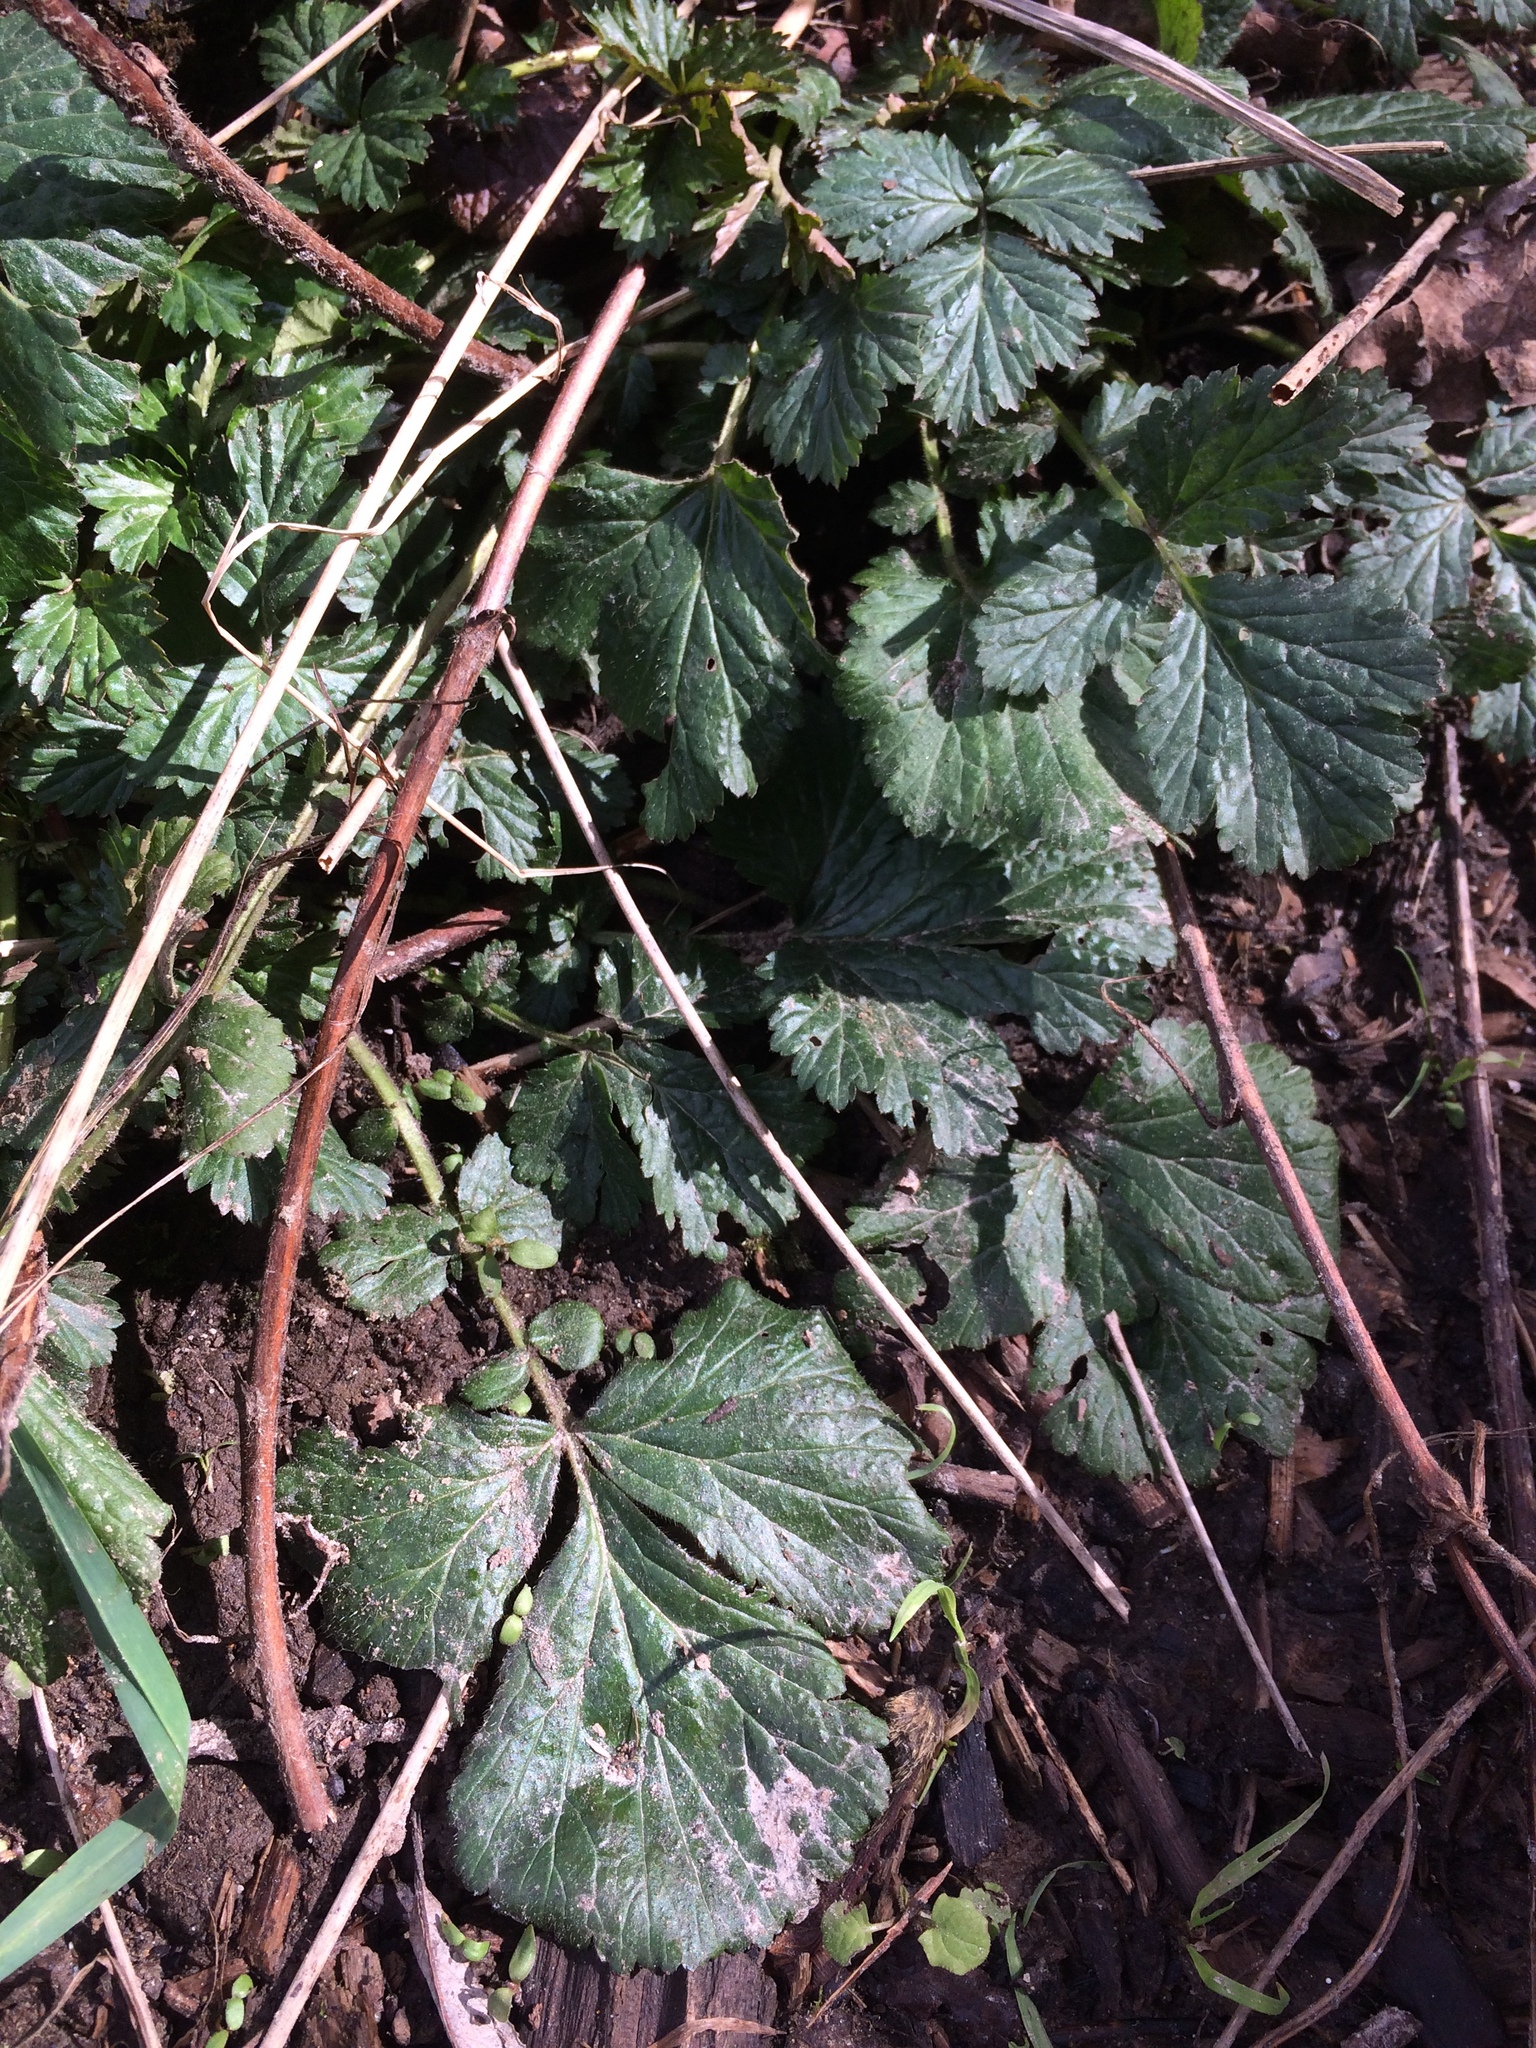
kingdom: Plantae
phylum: Tracheophyta
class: Magnoliopsida
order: Rosales
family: Rosaceae
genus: Geum
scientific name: Geum urbanum
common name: Wood avens
